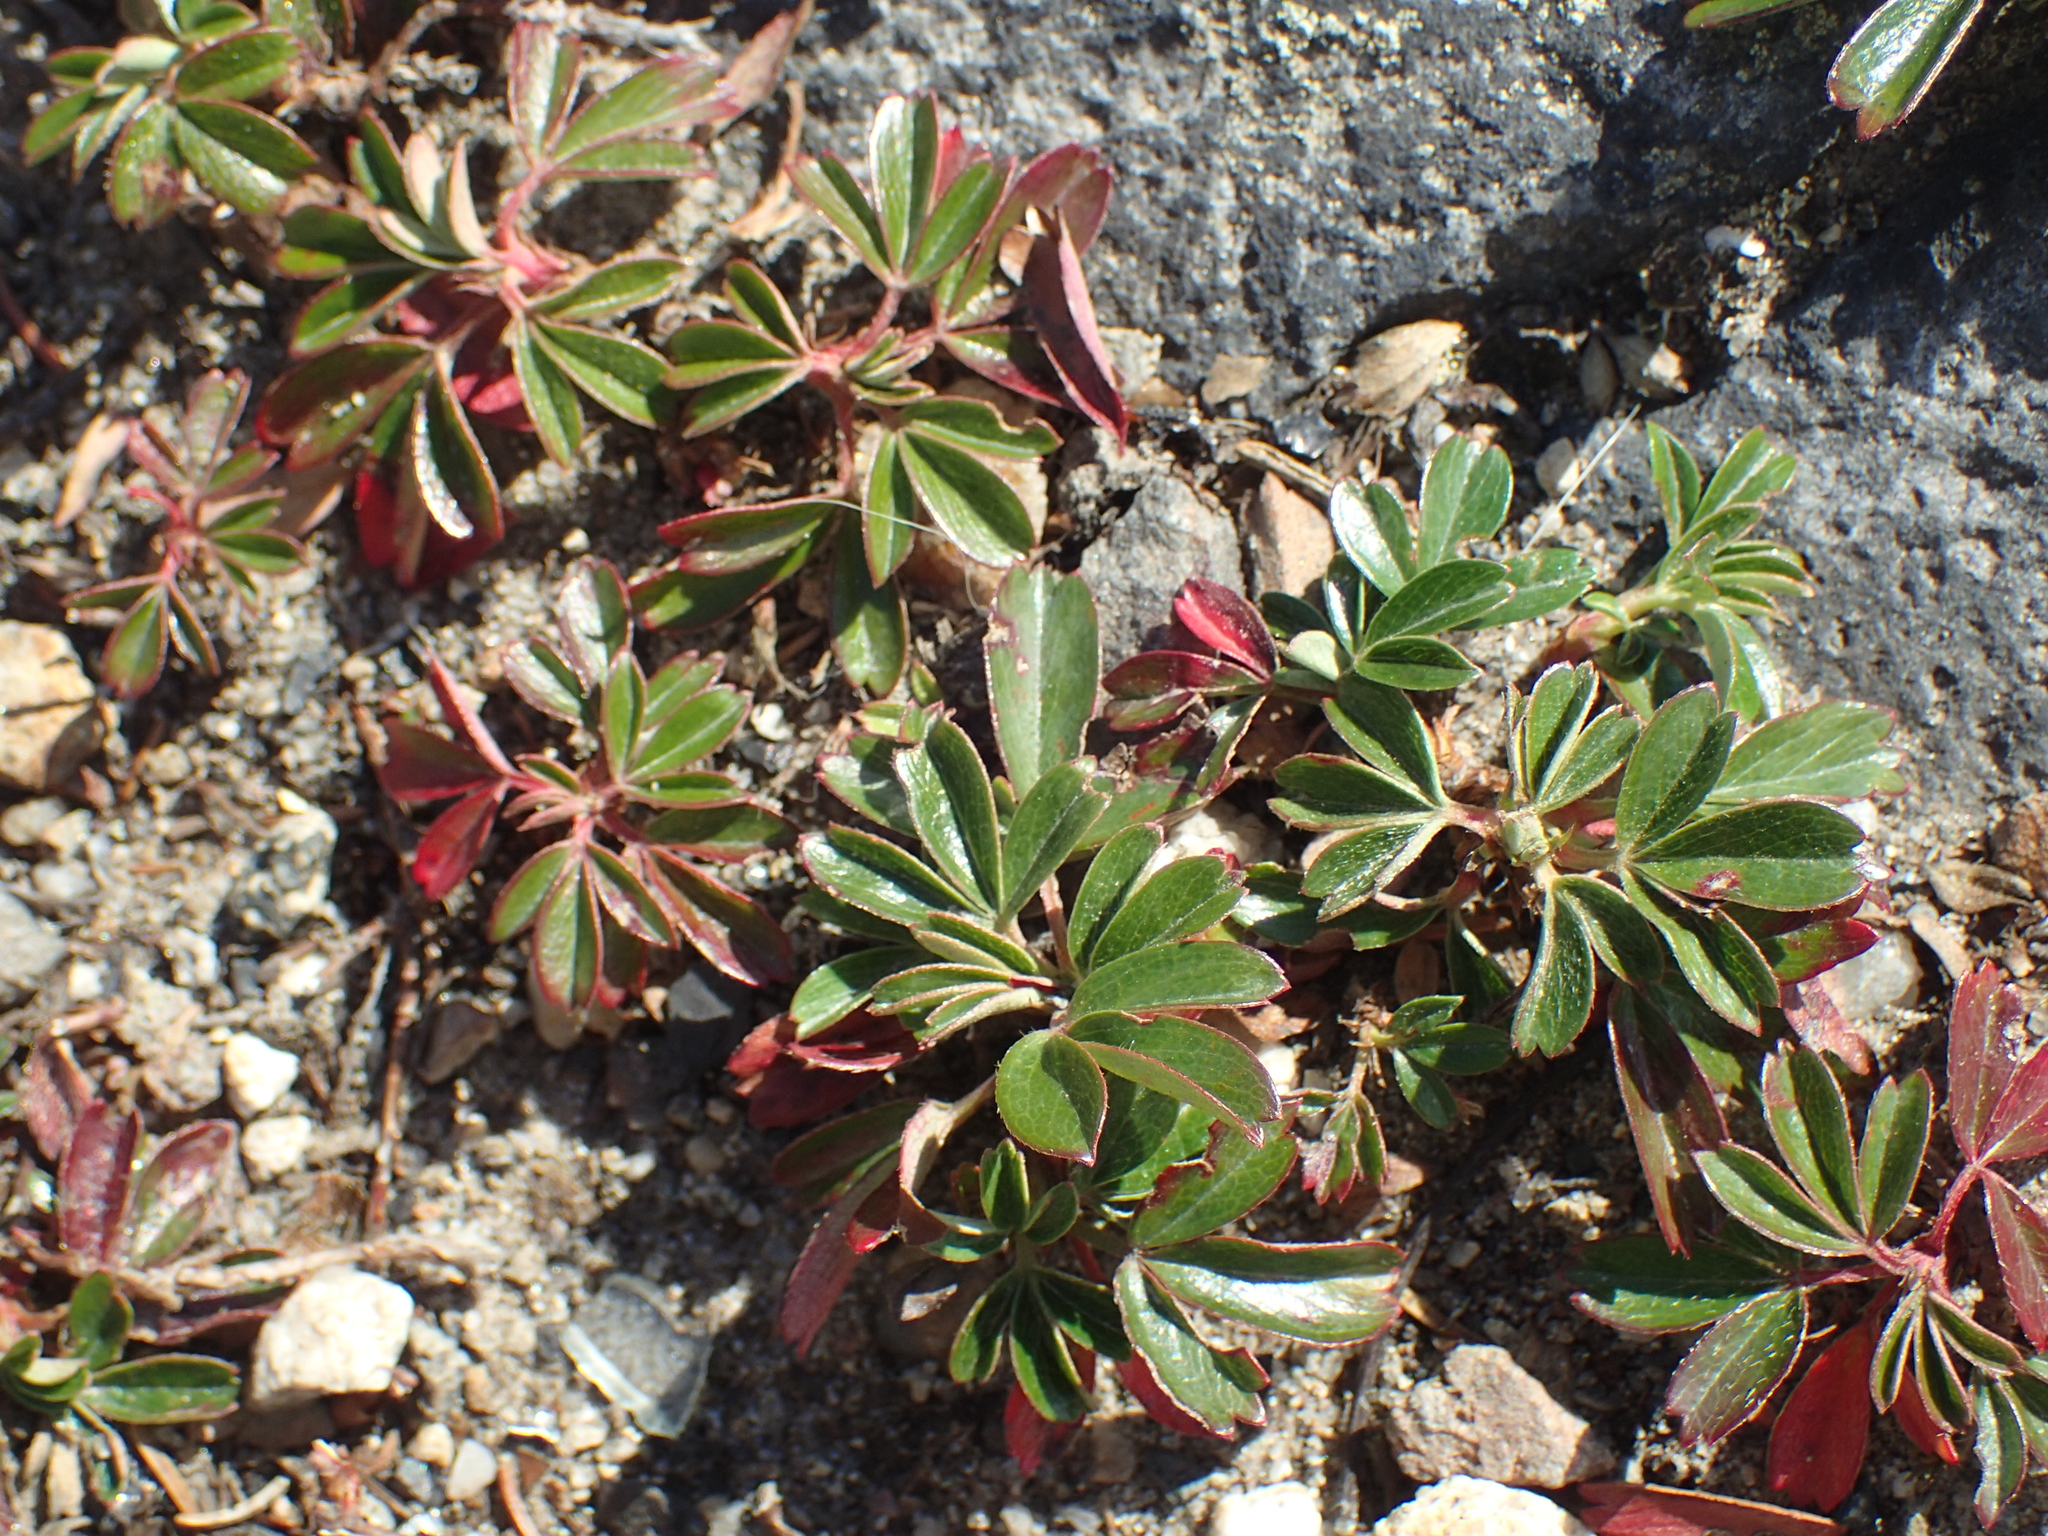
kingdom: Plantae
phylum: Tracheophyta
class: Magnoliopsida
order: Rosales
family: Rosaceae
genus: Sibbaldia
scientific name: Sibbaldia tridentata
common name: Three-toothed cinquefoil
